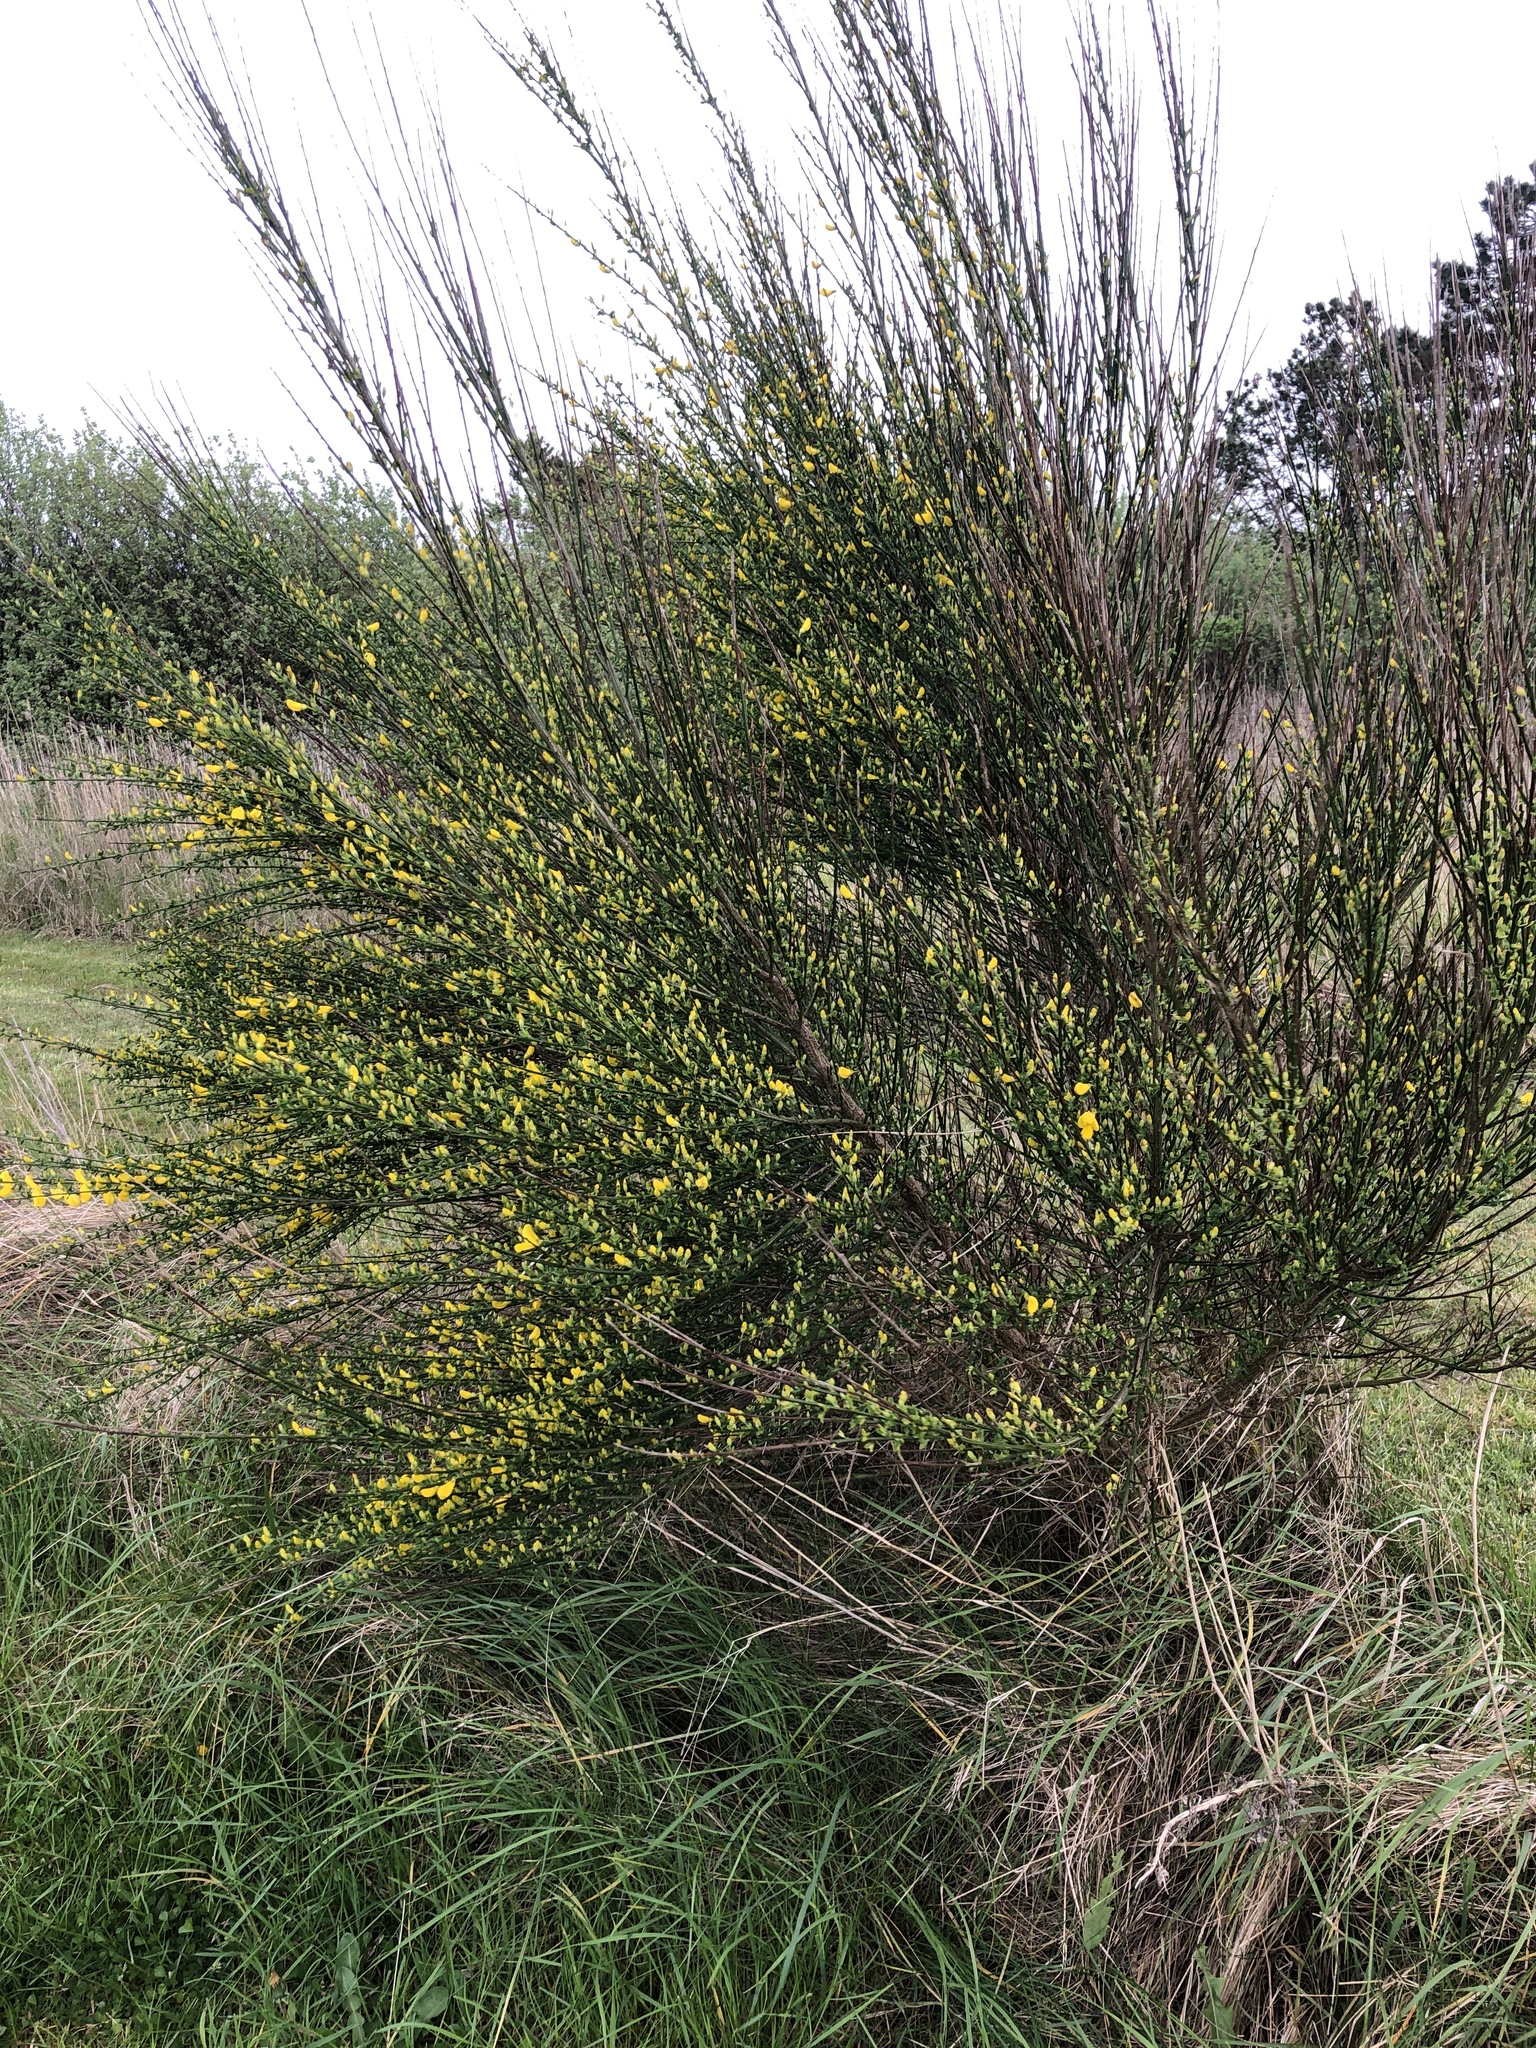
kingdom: Plantae
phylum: Tracheophyta
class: Magnoliopsida
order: Fabales
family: Fabaceae
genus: Cytisus
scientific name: Cytisus scoparius
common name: Scotch broom
